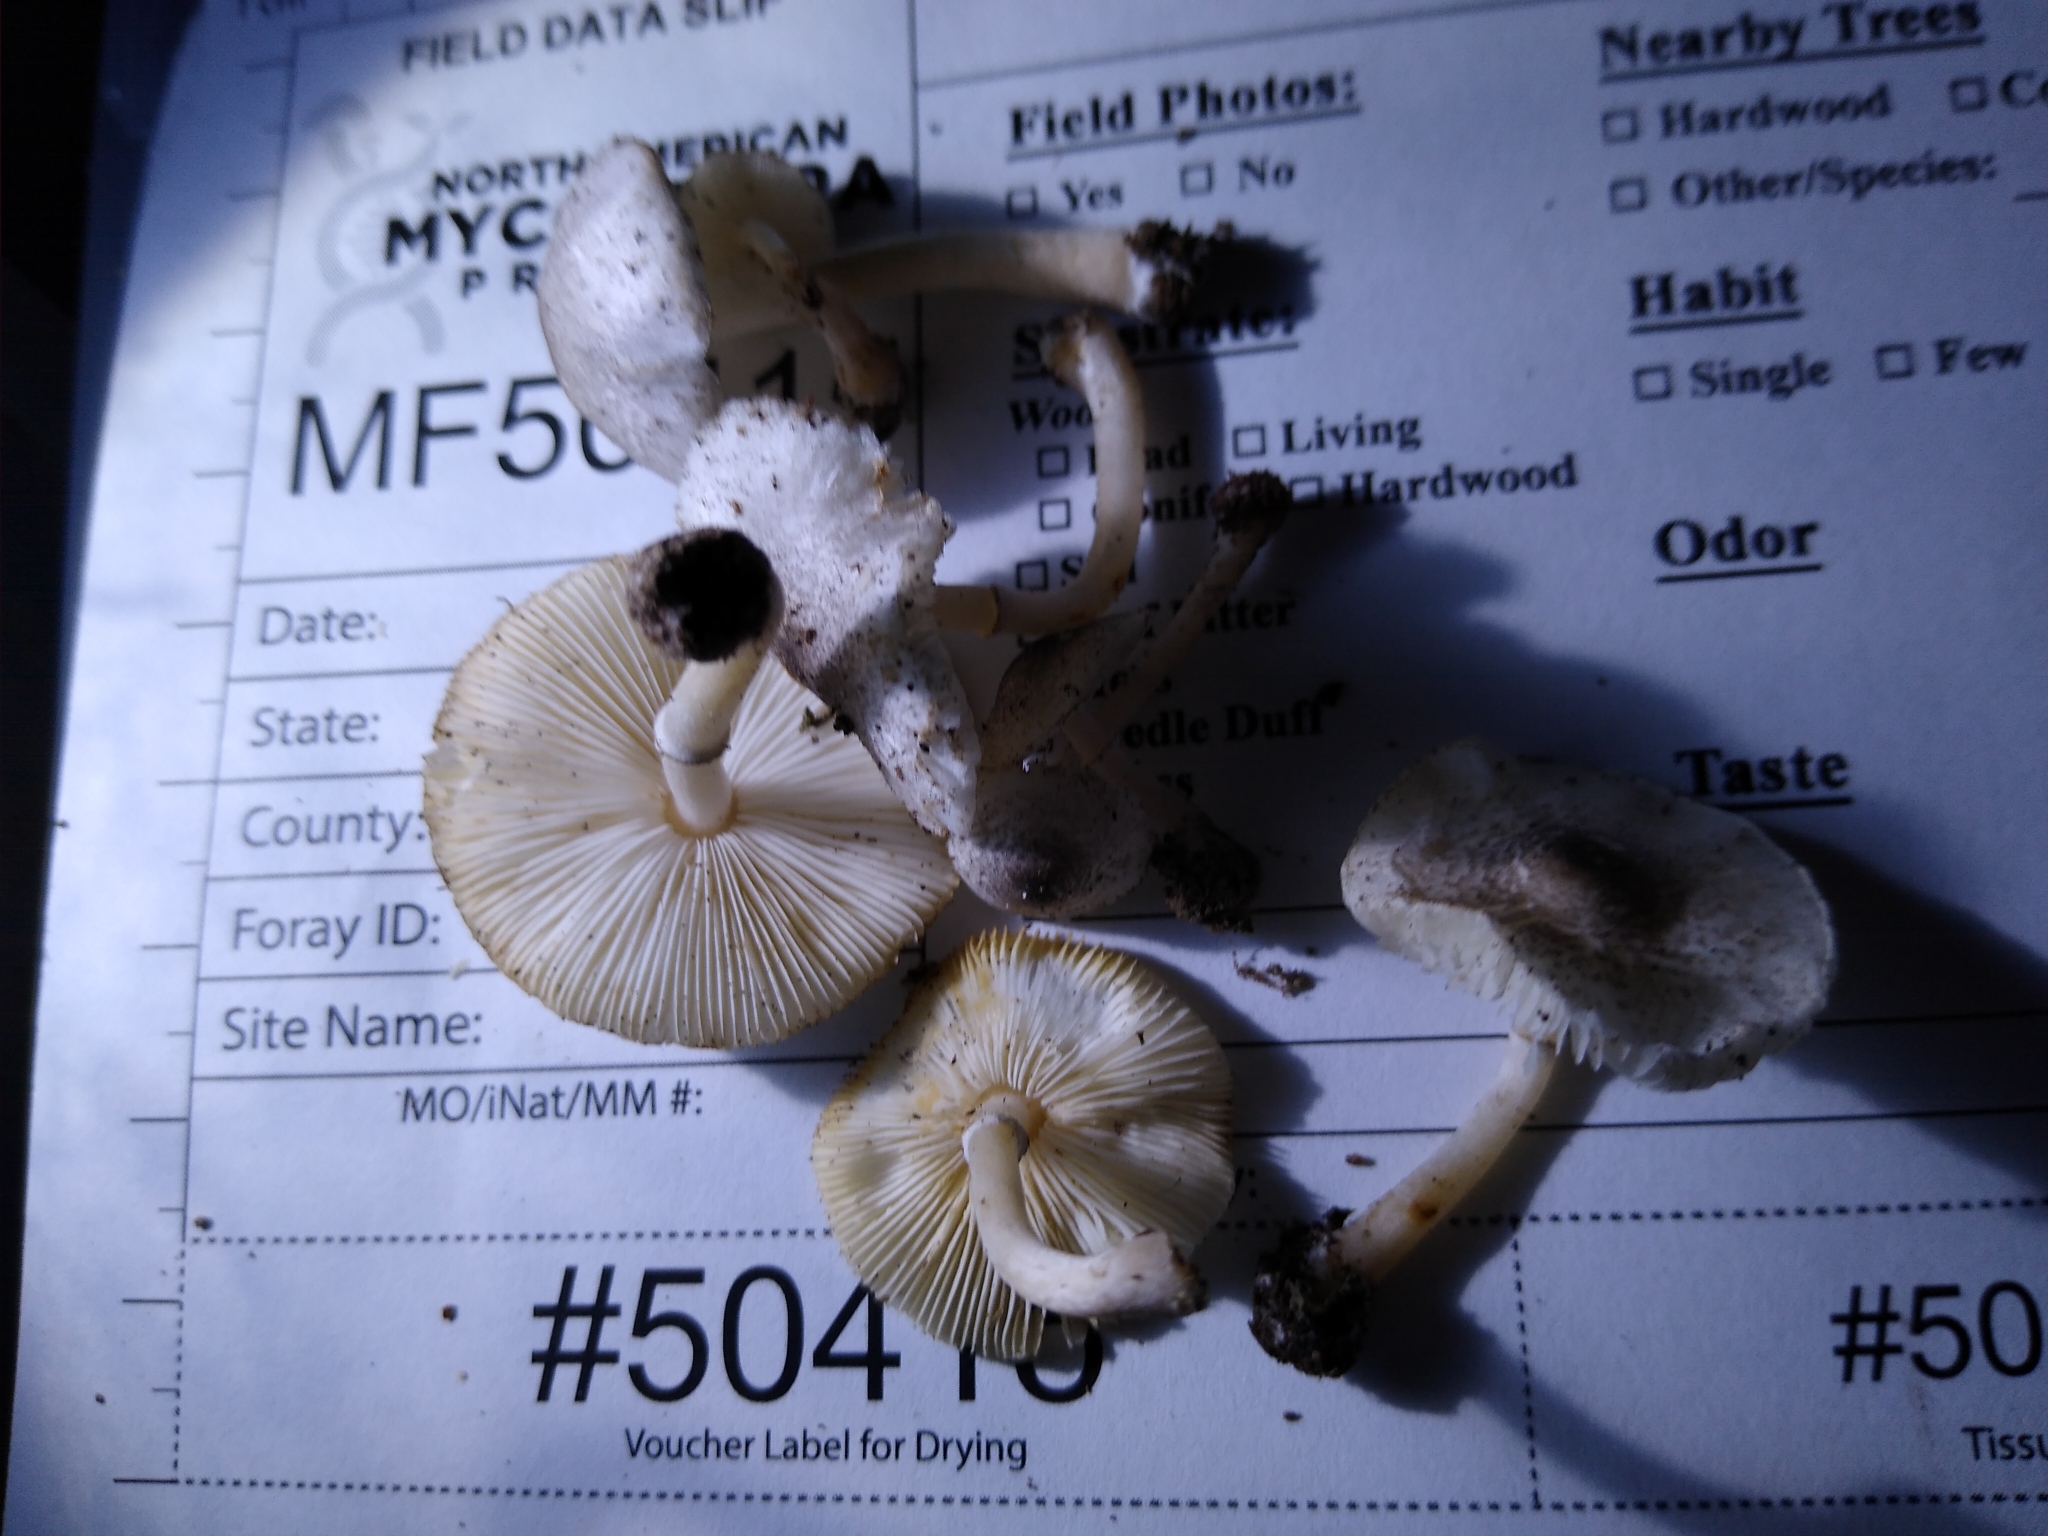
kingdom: Fungi
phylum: Basidiomycota
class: Agaricomycetes
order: Agaricales
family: Agaricaceae
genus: Leucoagaricus
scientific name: Leucoagaricus dacrytus
